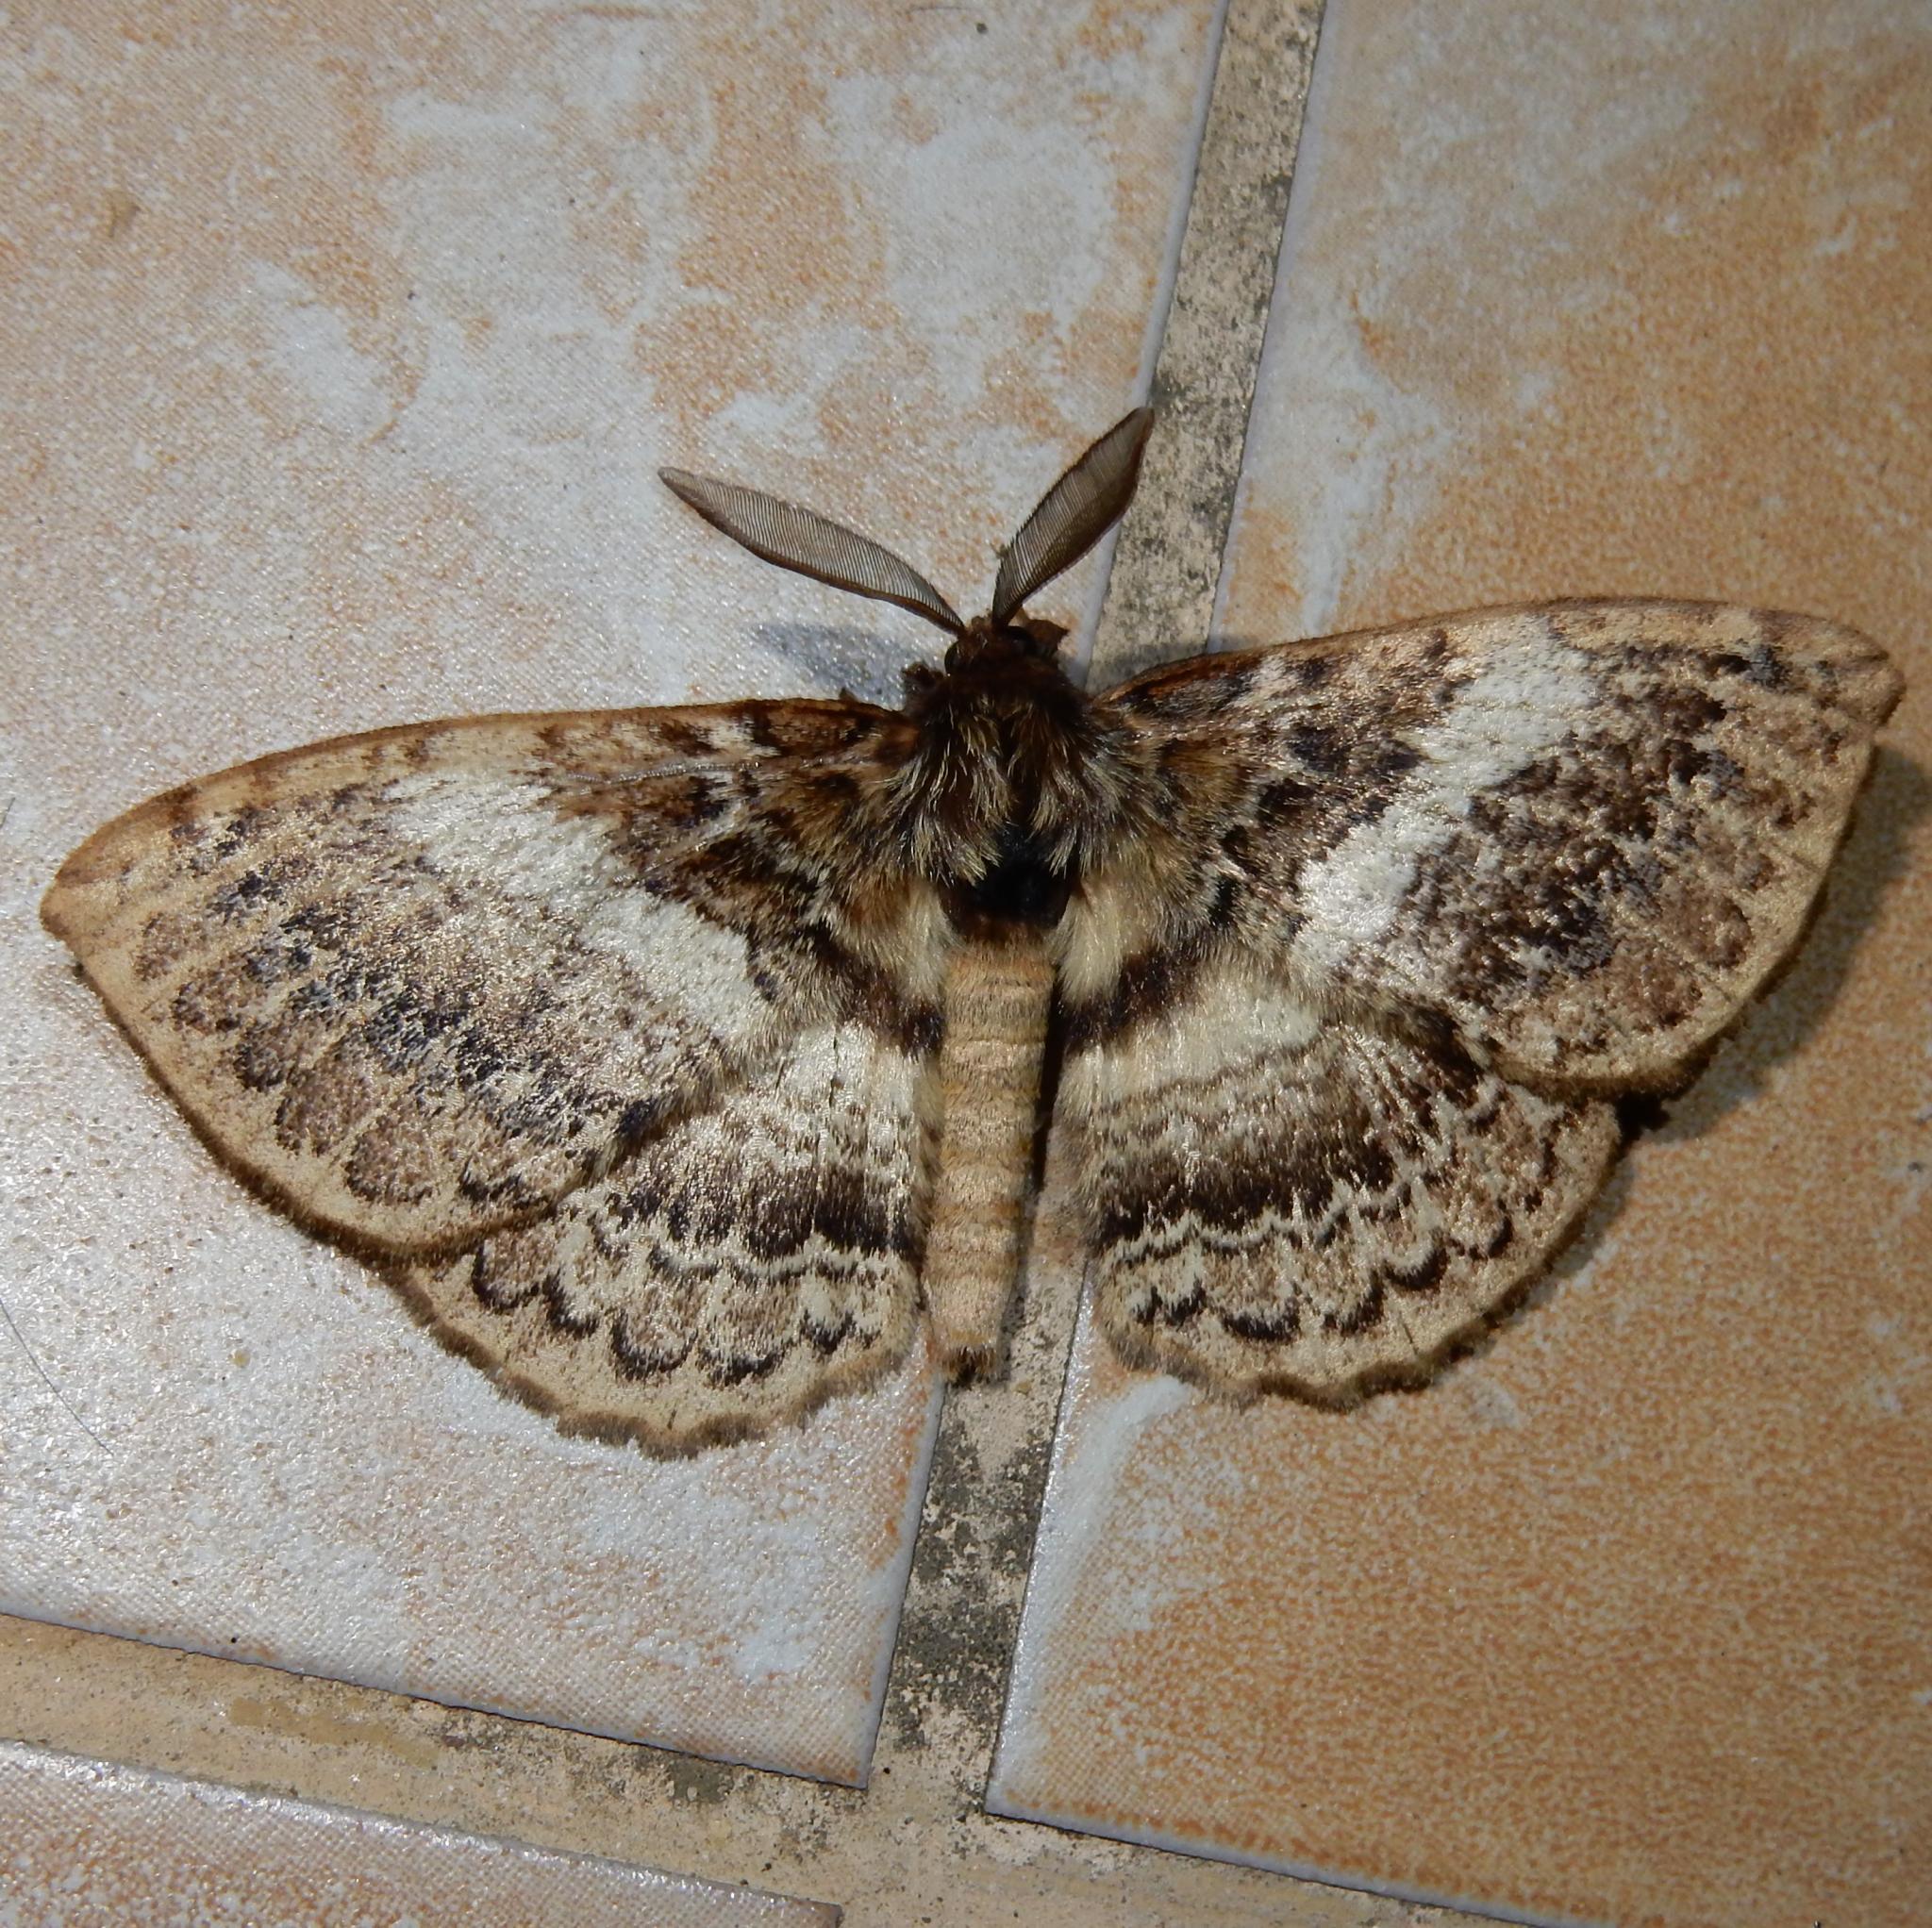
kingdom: Animalia
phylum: Arthropoda
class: Insecta
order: Lepidoptera
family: Eupterotidae
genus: Striphnopteryx
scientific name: Striphnopteryx edulis
